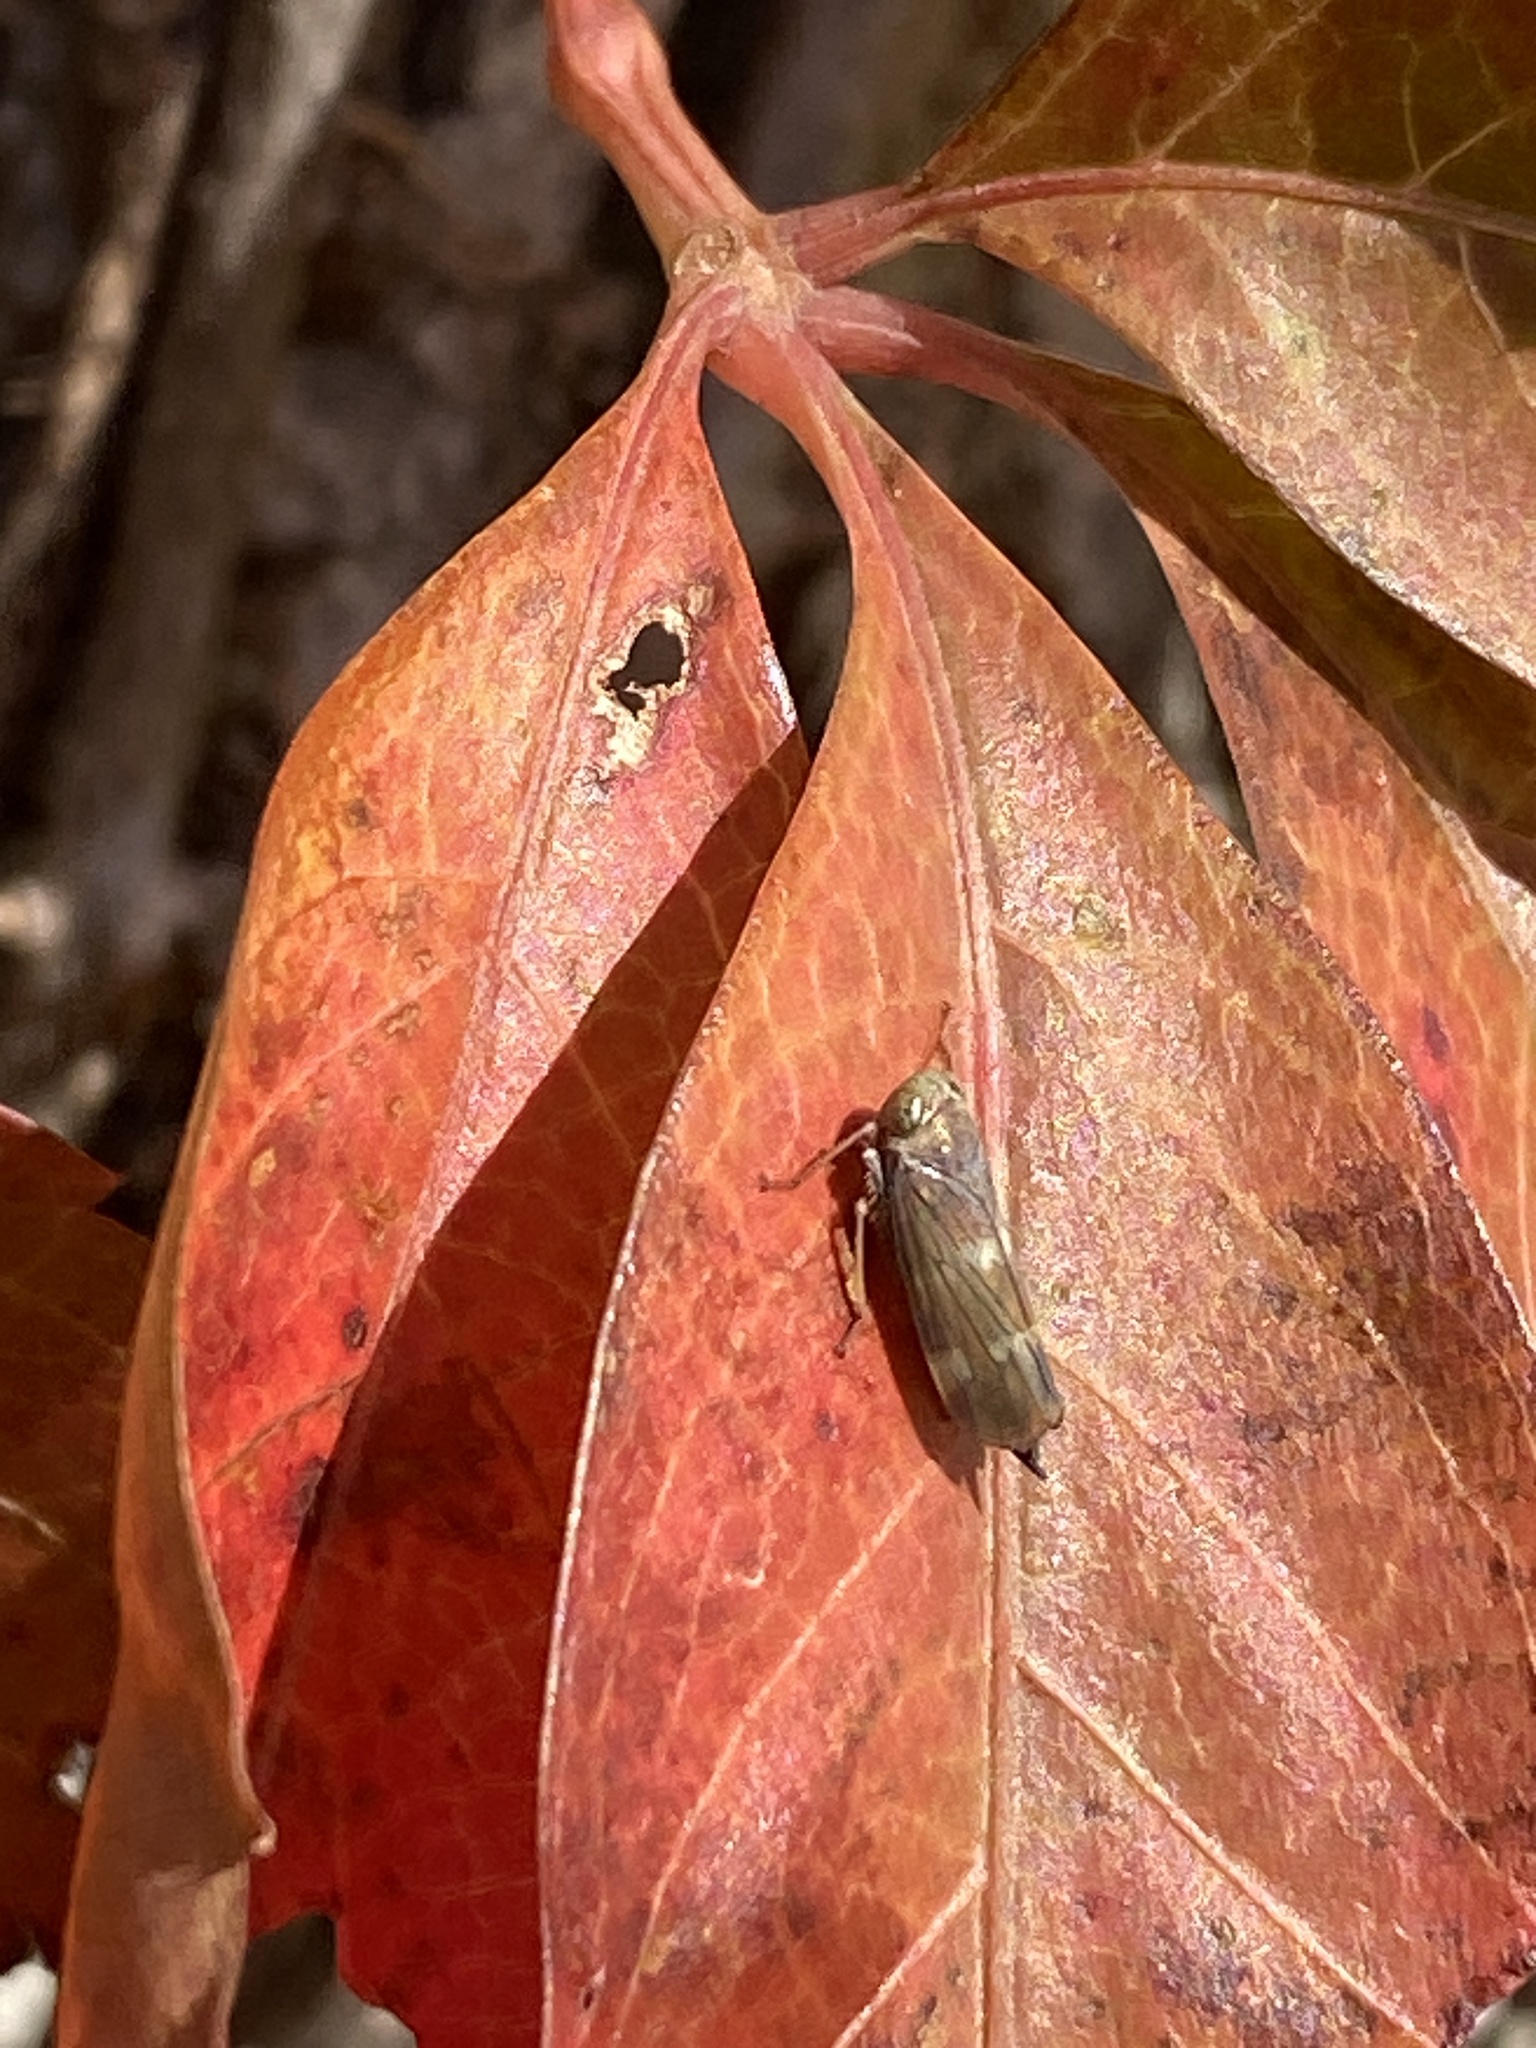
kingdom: Animalia
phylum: Arthropoda
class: Insecta
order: Hemiptera
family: Cicadellidae
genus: Jikradia
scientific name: Jikradia olitoria
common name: Coppery leafhopper
